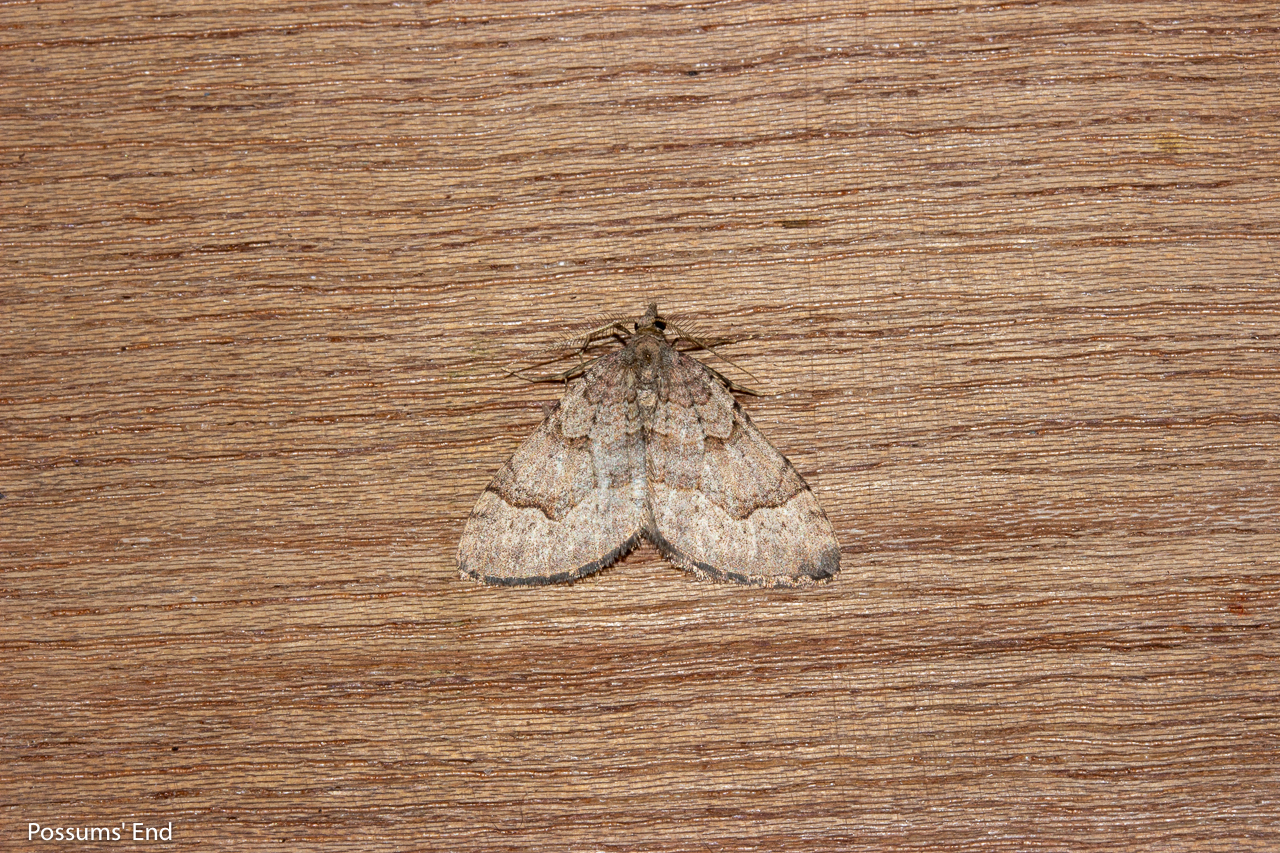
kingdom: Animalia
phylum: Arthropoda
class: Insecta
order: Lepidoptera
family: Geometridae
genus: Epyaxa
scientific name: Epyaxa rosearia
